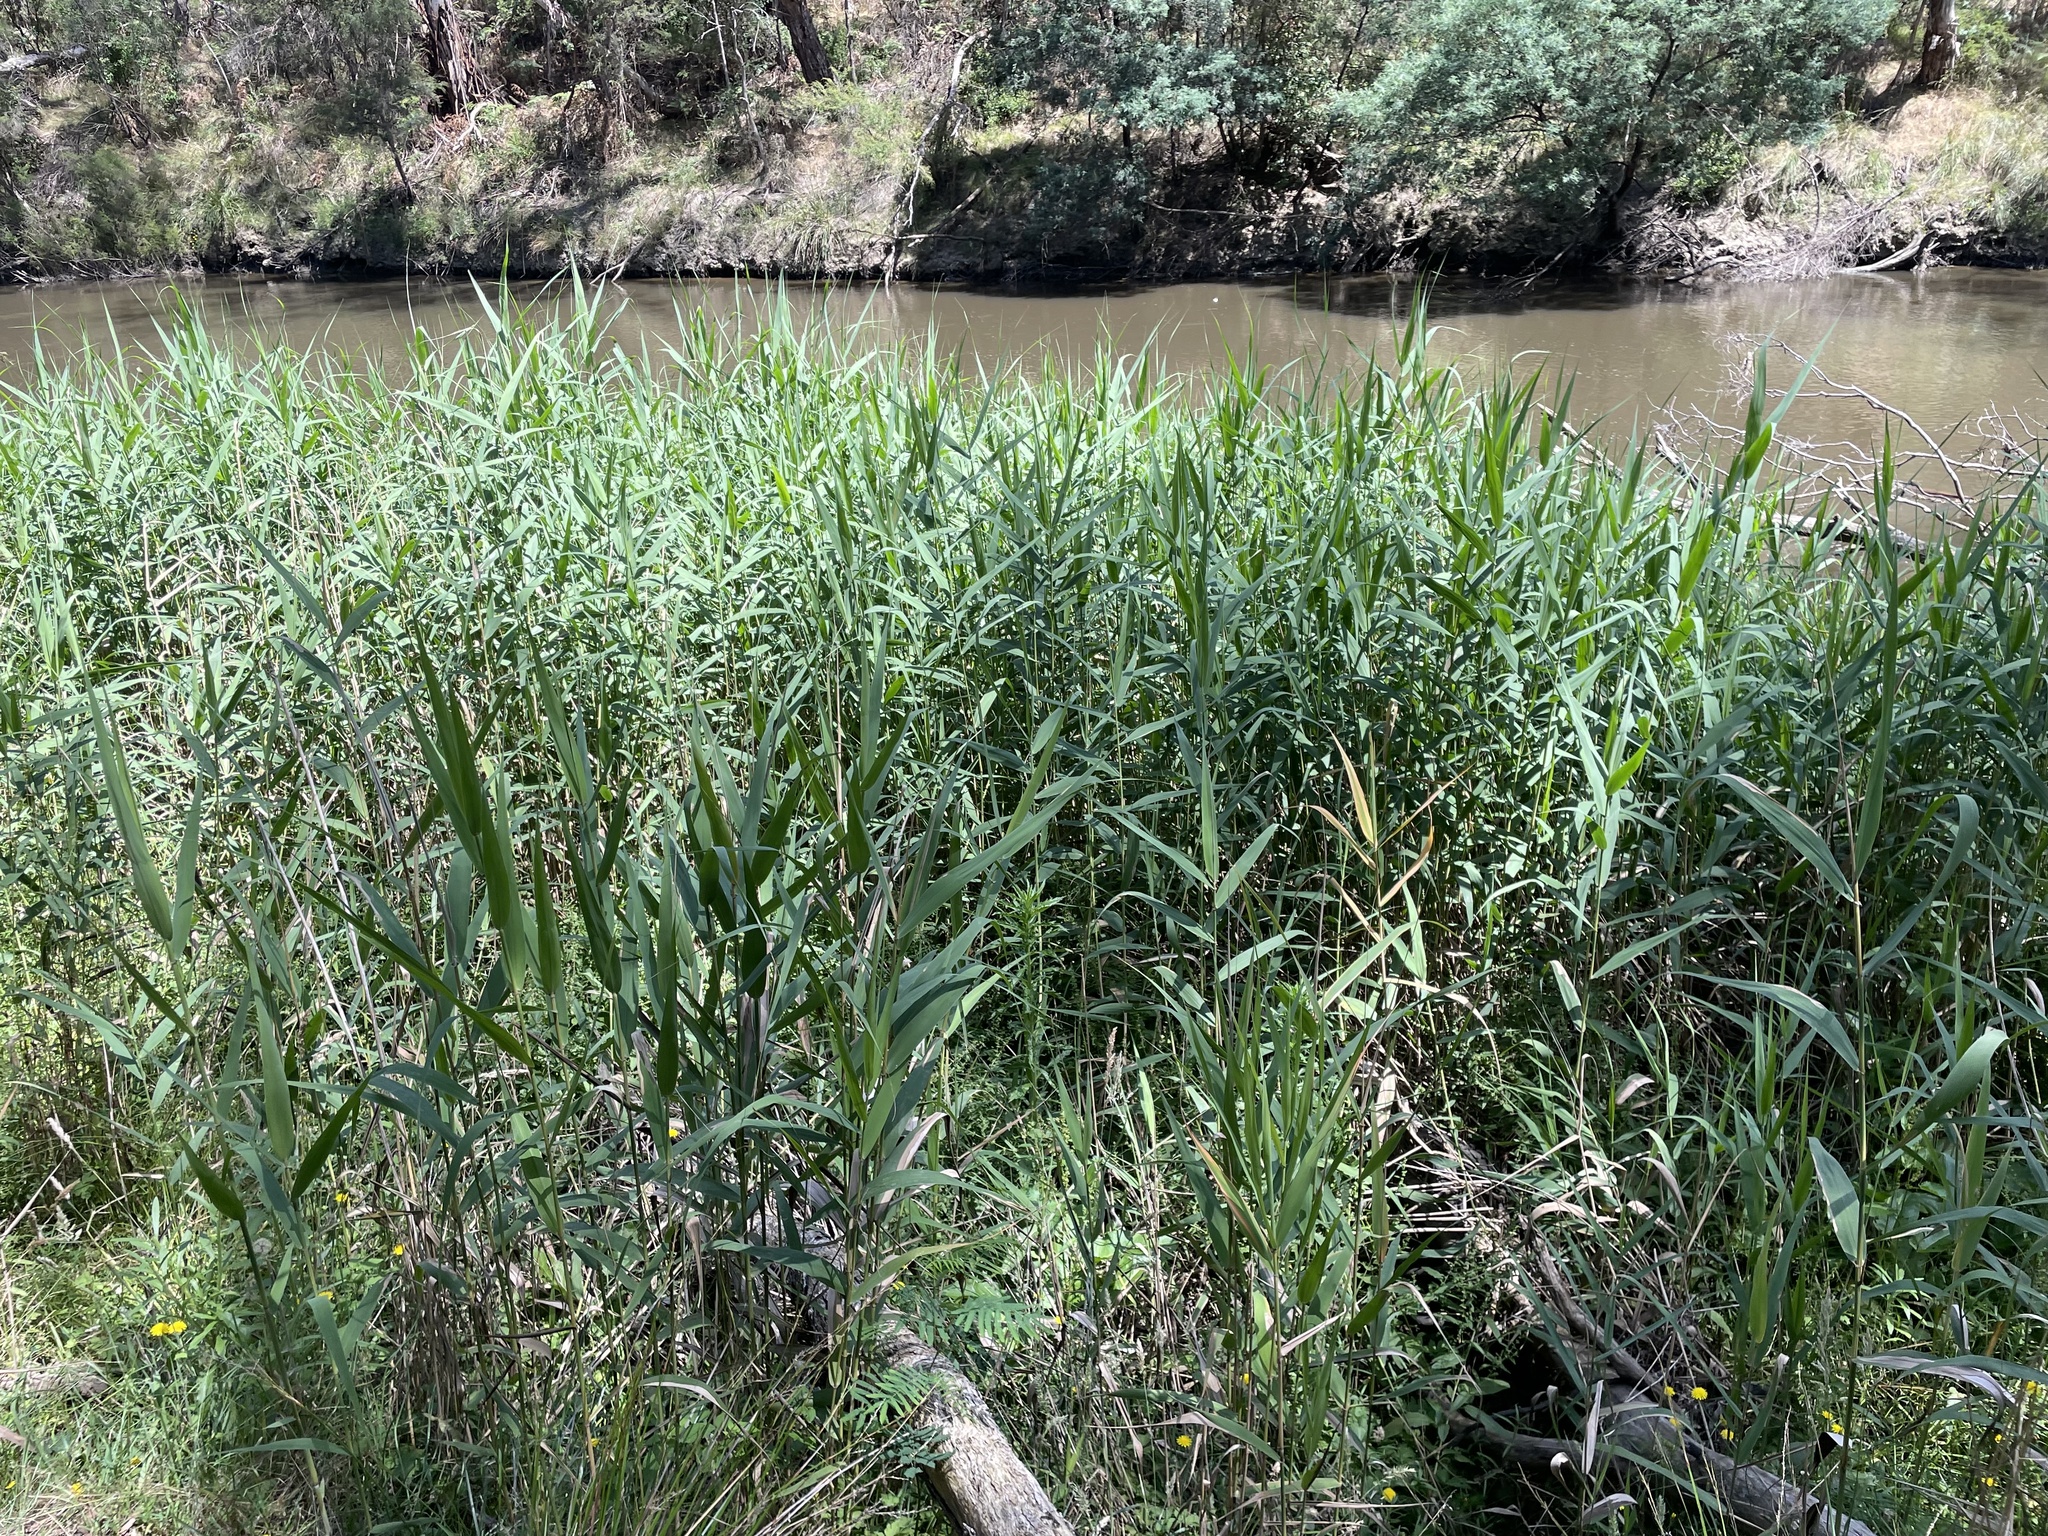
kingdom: Plantae
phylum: Tracheophyta
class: Liliopsida
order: Poales
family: Poaceae
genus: Phragmites
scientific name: Phragmites australis
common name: Common reed
